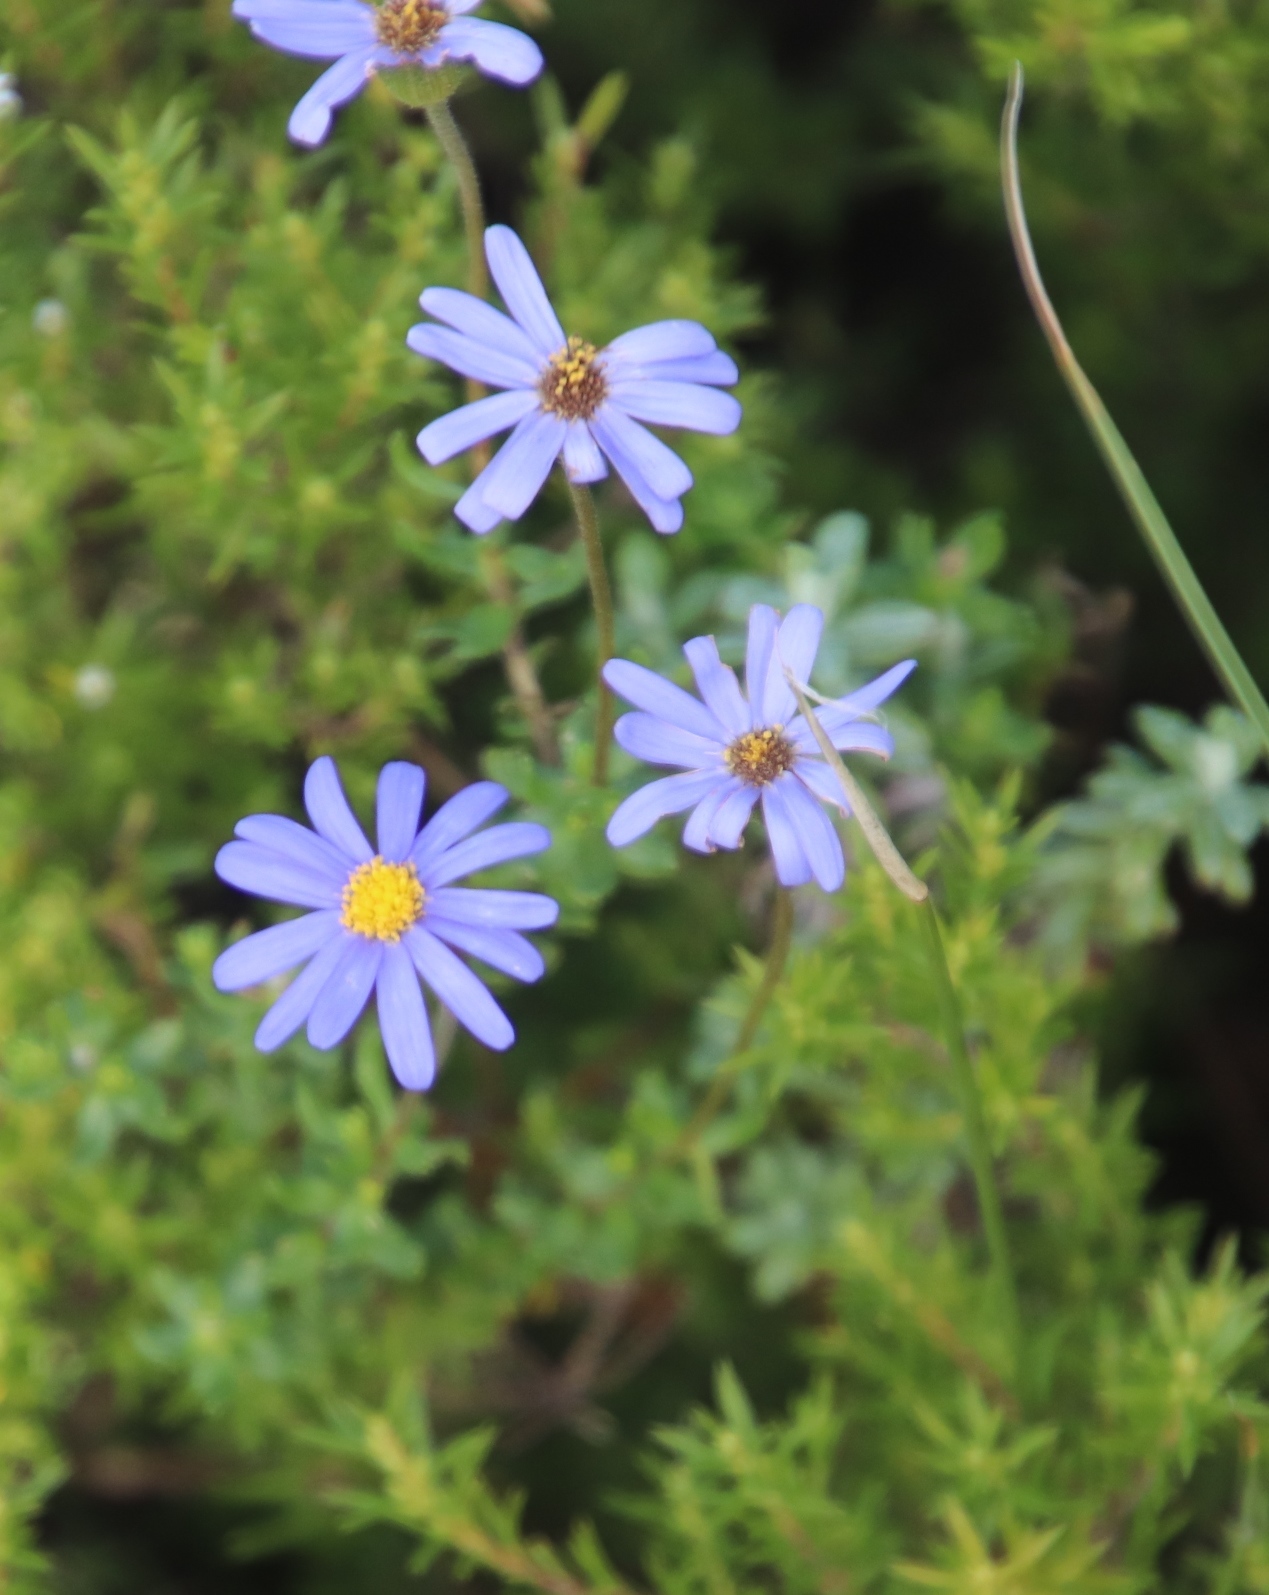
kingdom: Plantae
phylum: Tracheophyta
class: Magnoliopsida
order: Asterales
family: Asteraceae
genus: Felicia
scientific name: Felicia aethiopica
